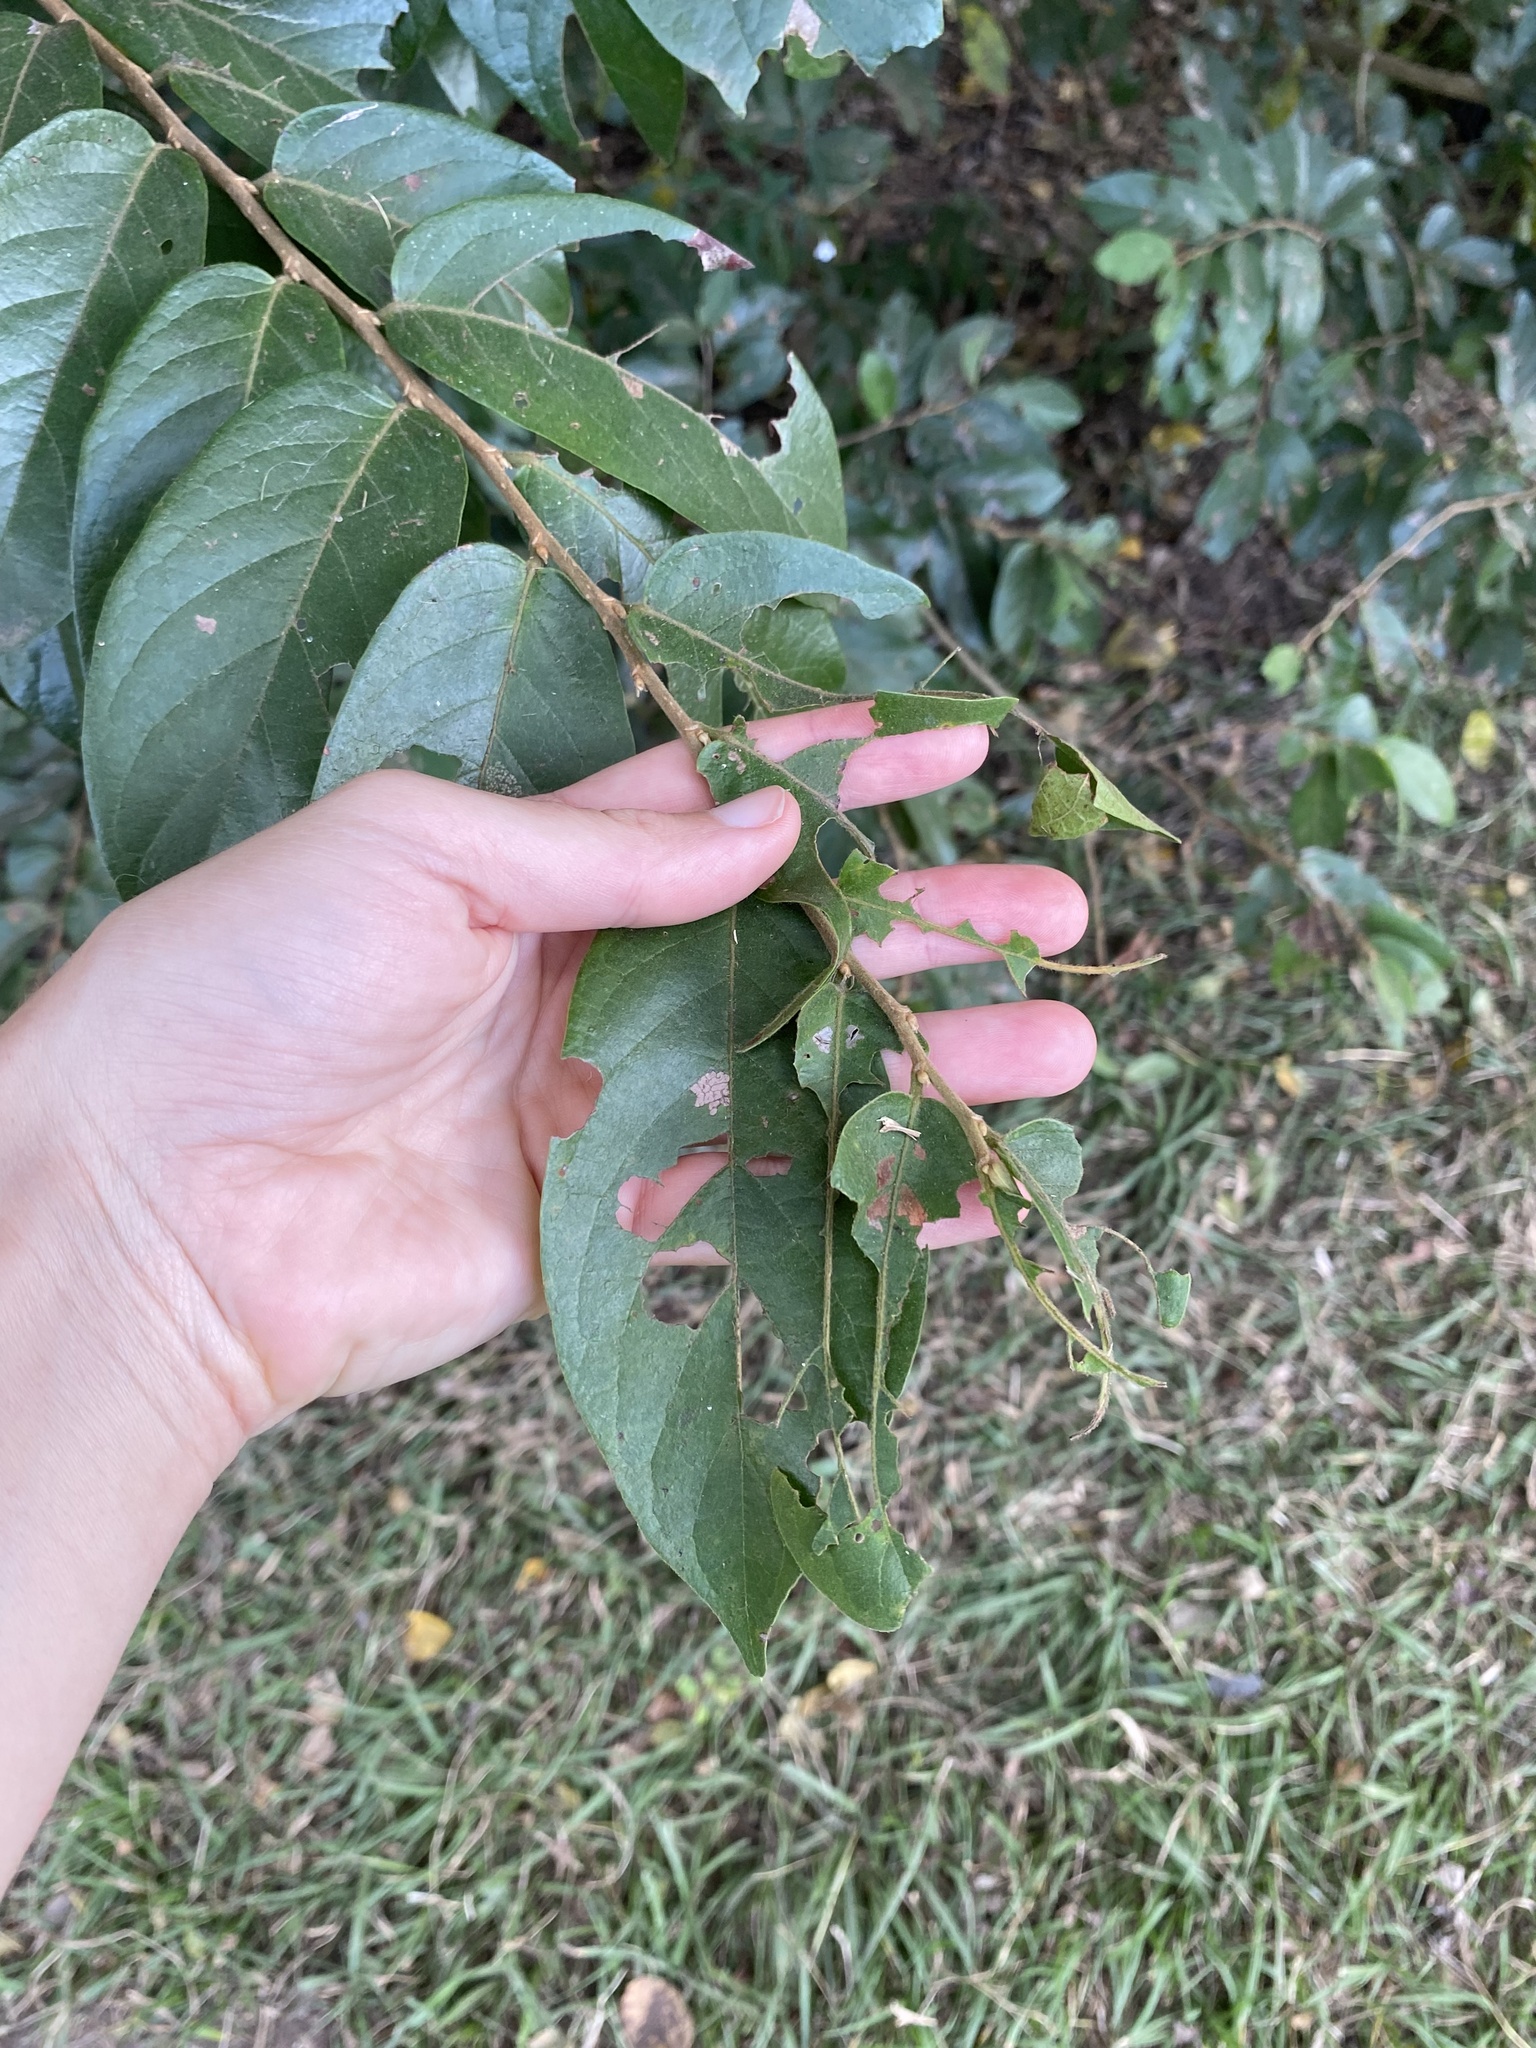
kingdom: Plantae
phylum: Tracheophyta
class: Magnoliopsida
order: Malpighiales
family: Phyllanthaceae
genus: Antidesma
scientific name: Antidesma venosum
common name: Tassel-berry
